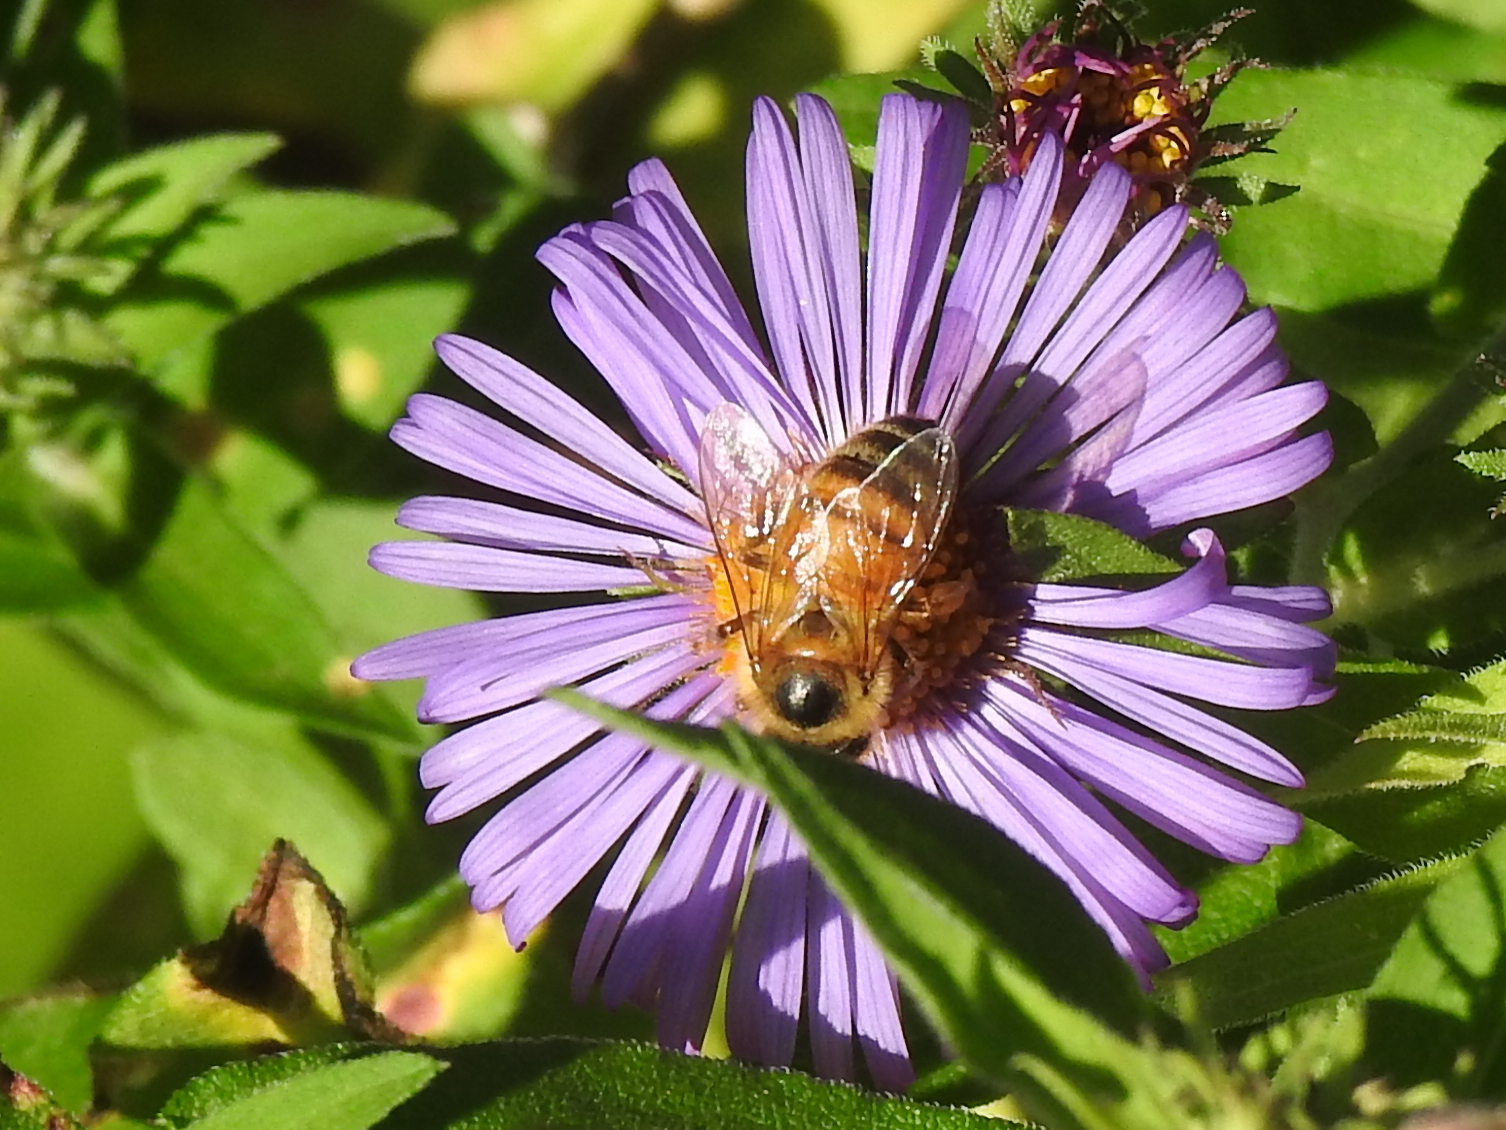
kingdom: Animalia
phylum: Arthropoda
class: Insecta
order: Hymenoptera
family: Apidae
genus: Apis
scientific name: Apis mellifera
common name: Honey bee
